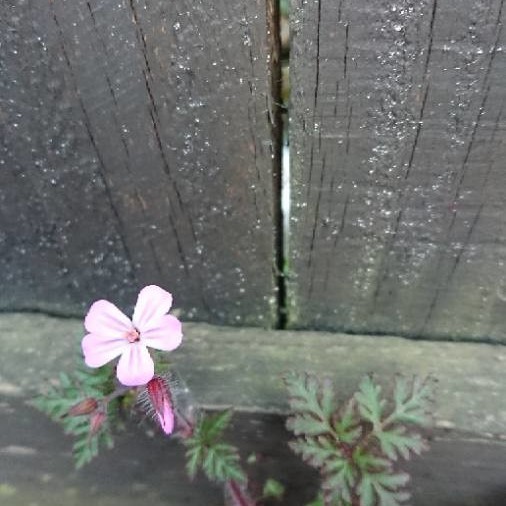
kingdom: Plantae
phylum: Tracheophyta
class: Magnoliopsida
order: Geraniales
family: Geraniaceae
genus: Geranium
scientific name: Geranium robertianum
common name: Herb-robert
